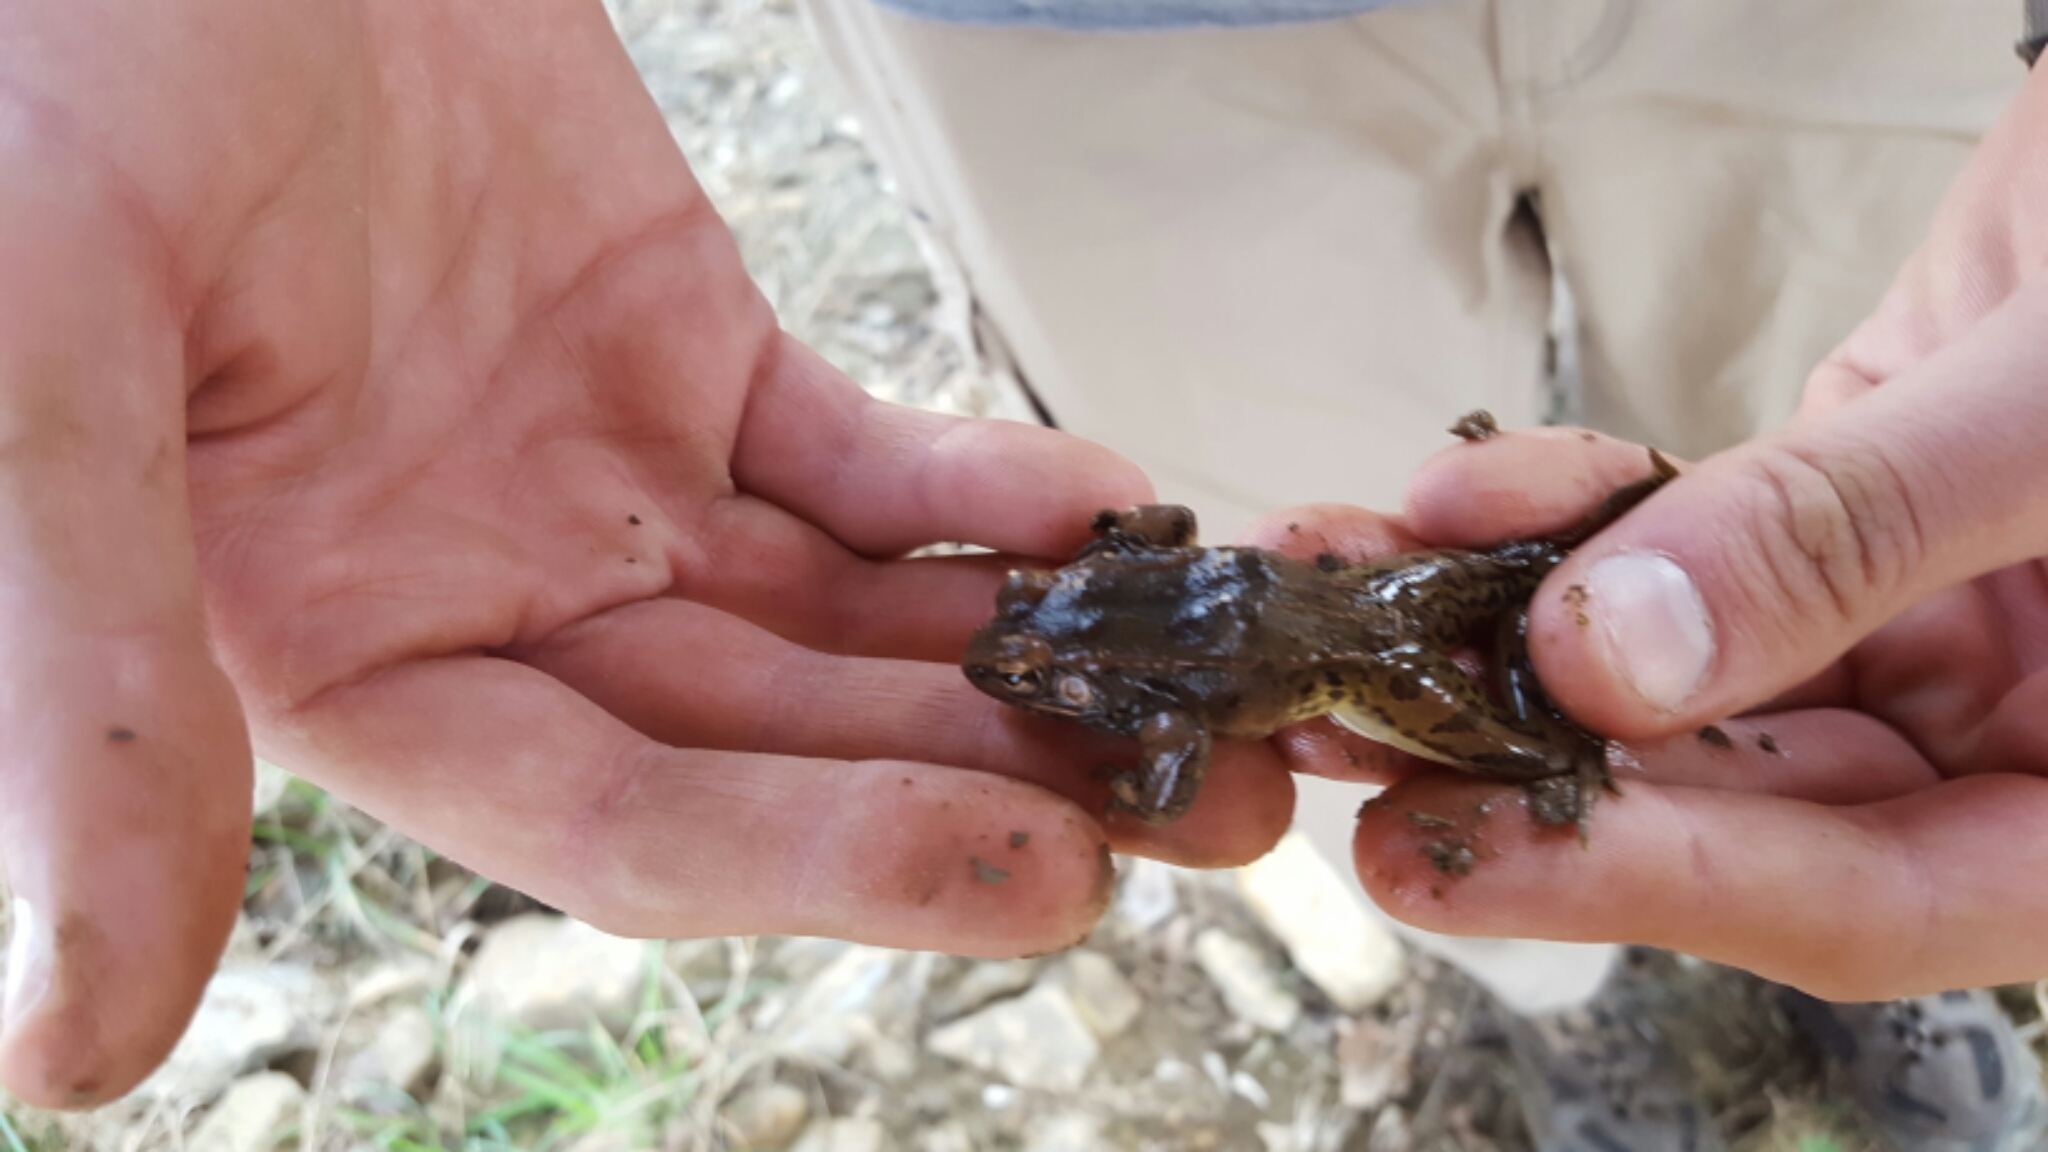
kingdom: Animalia
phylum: Chordata
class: Amphibia
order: Anura
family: Ranidae
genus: Lithobates
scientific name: Lithobates sphenocephalus
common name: Southern leopard frog
